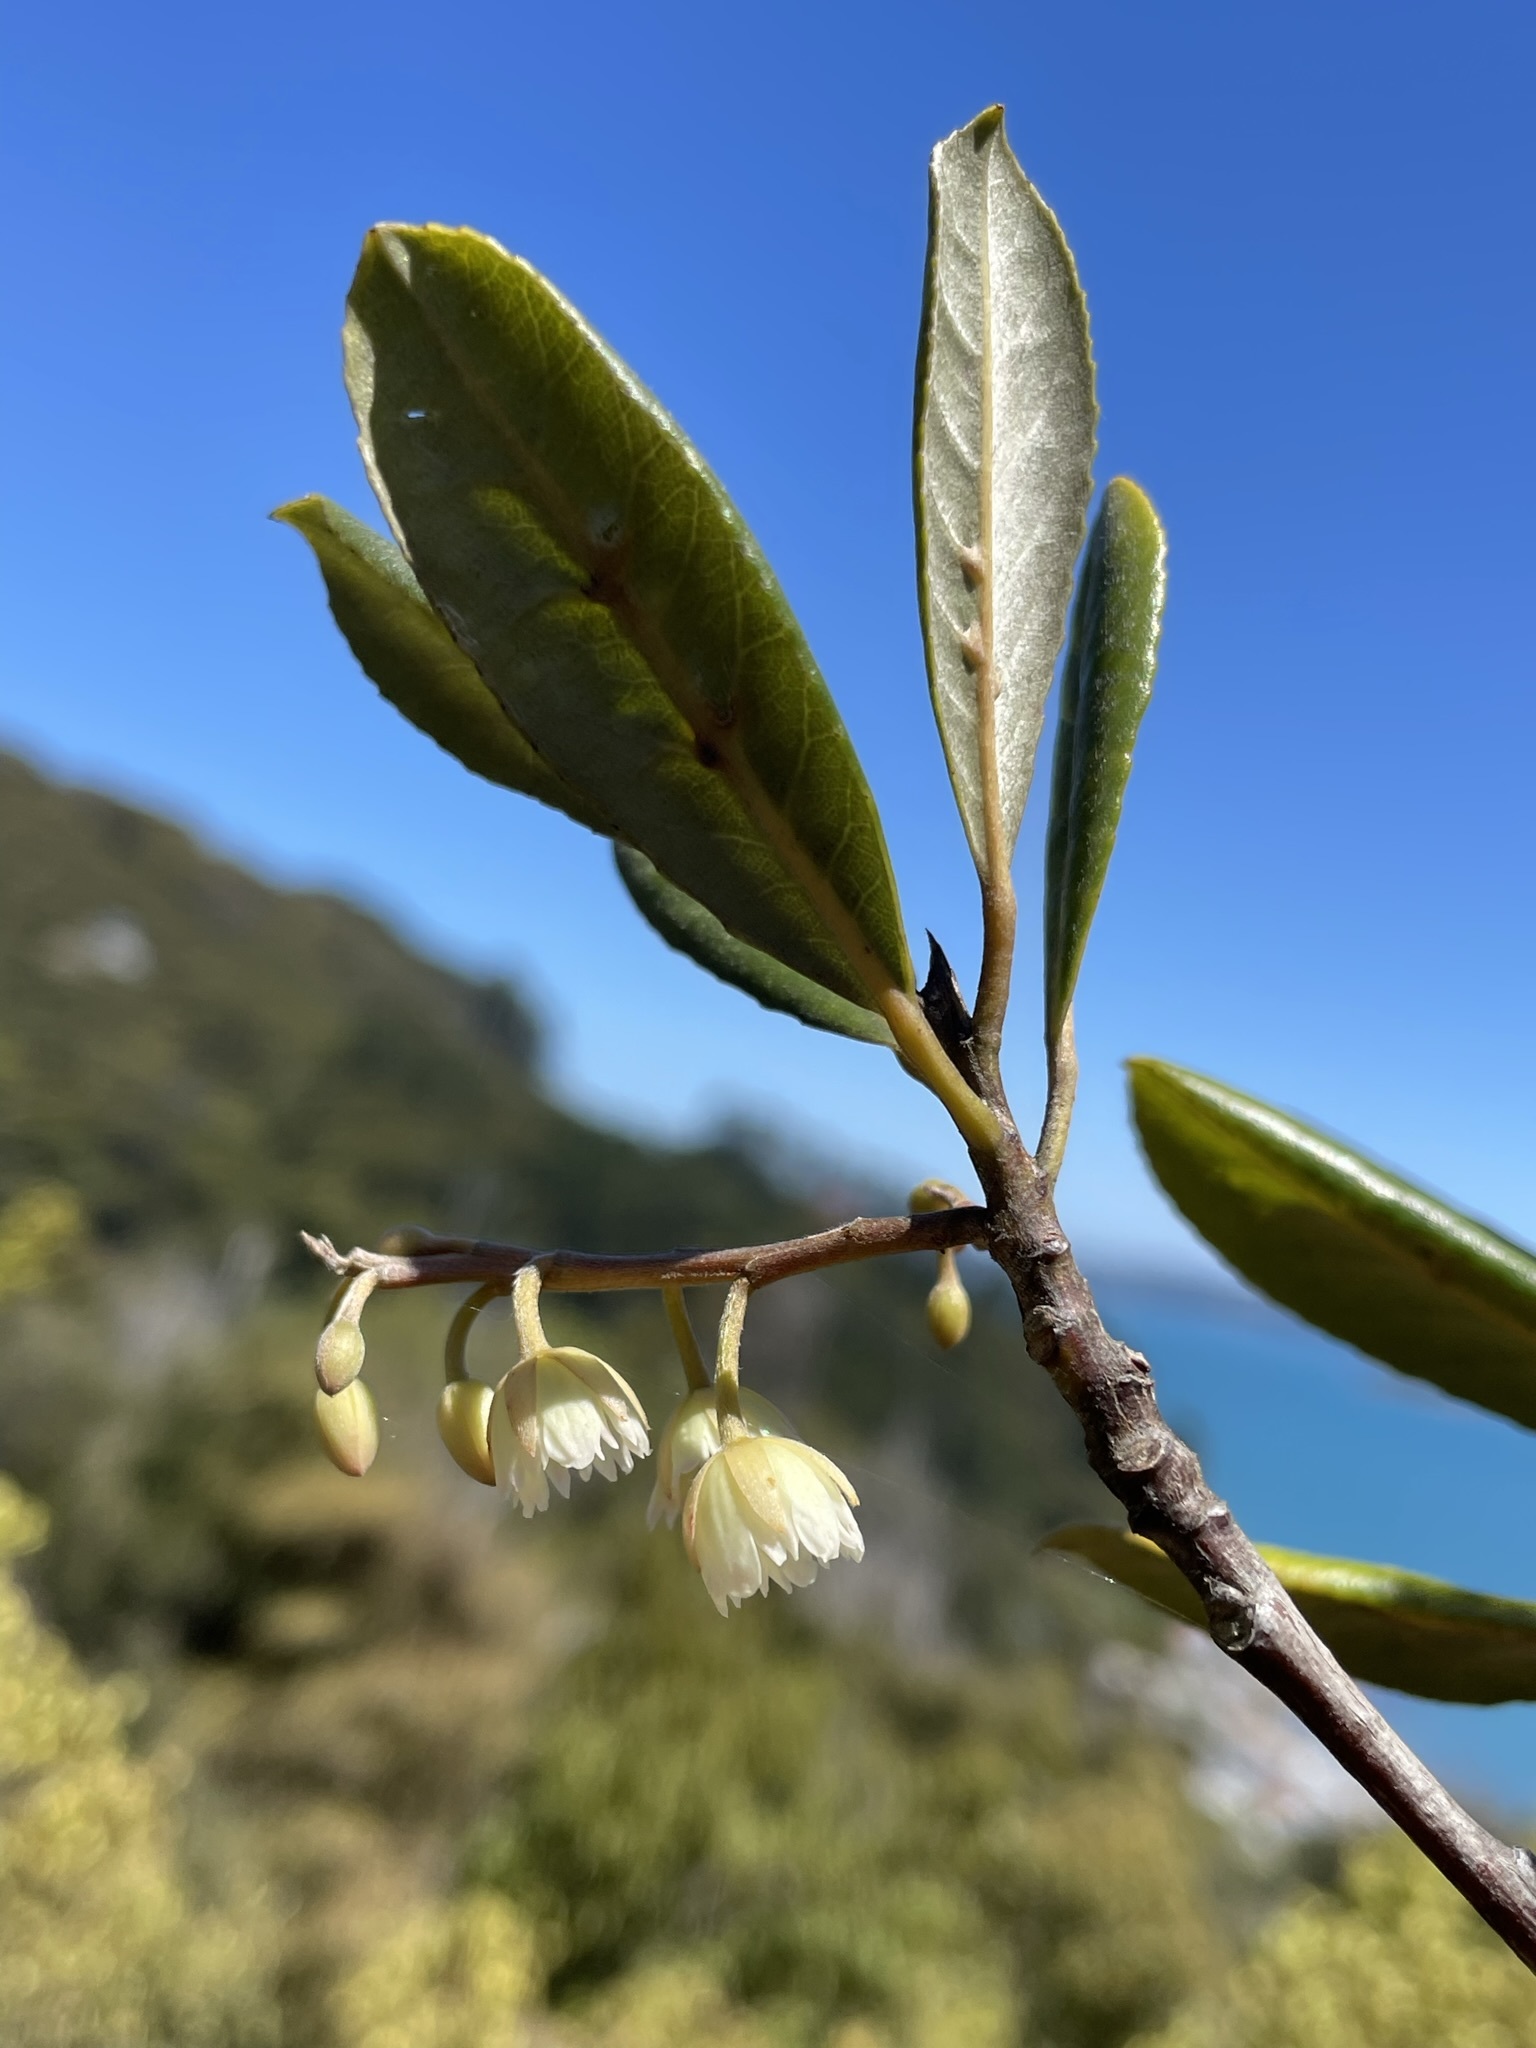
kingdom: Plantae
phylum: Tracheophyta
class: Magnoliopsida
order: Oxalidales
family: Elaeocarpaceae
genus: Elaeocarpus
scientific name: Elaeocarpus dentatus
